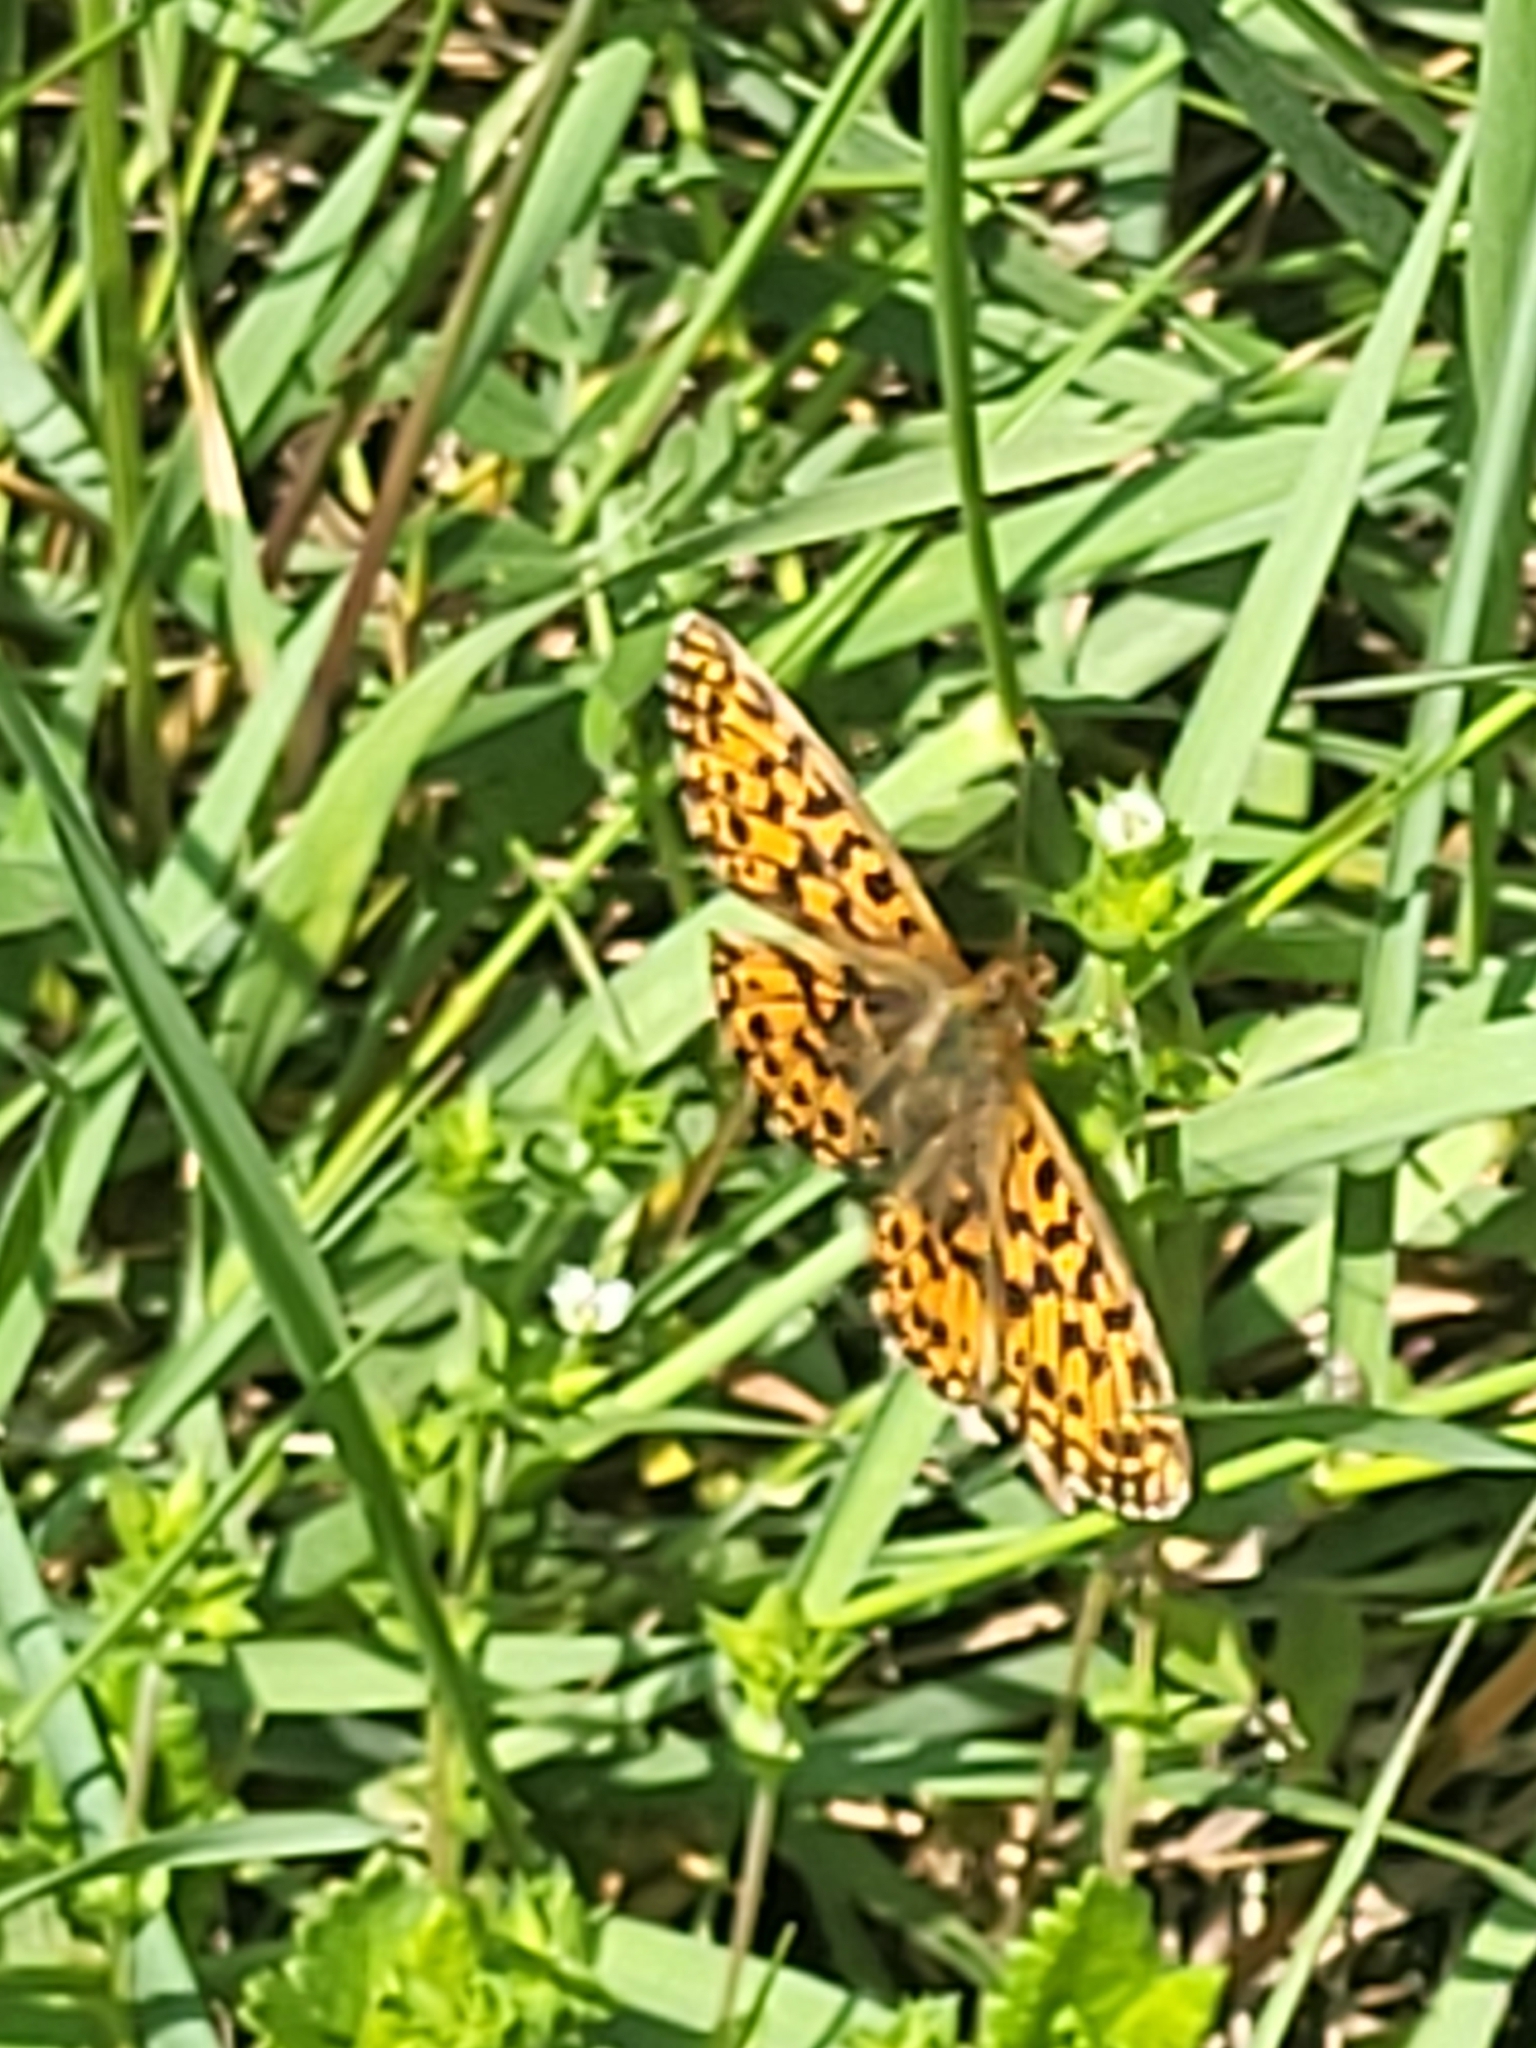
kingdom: Animalia
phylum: Arthropoda
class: Insecta
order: Lepidoptera
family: Nymphalidae
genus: Boloria
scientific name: Boloria dia
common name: Weaver's fritillary
